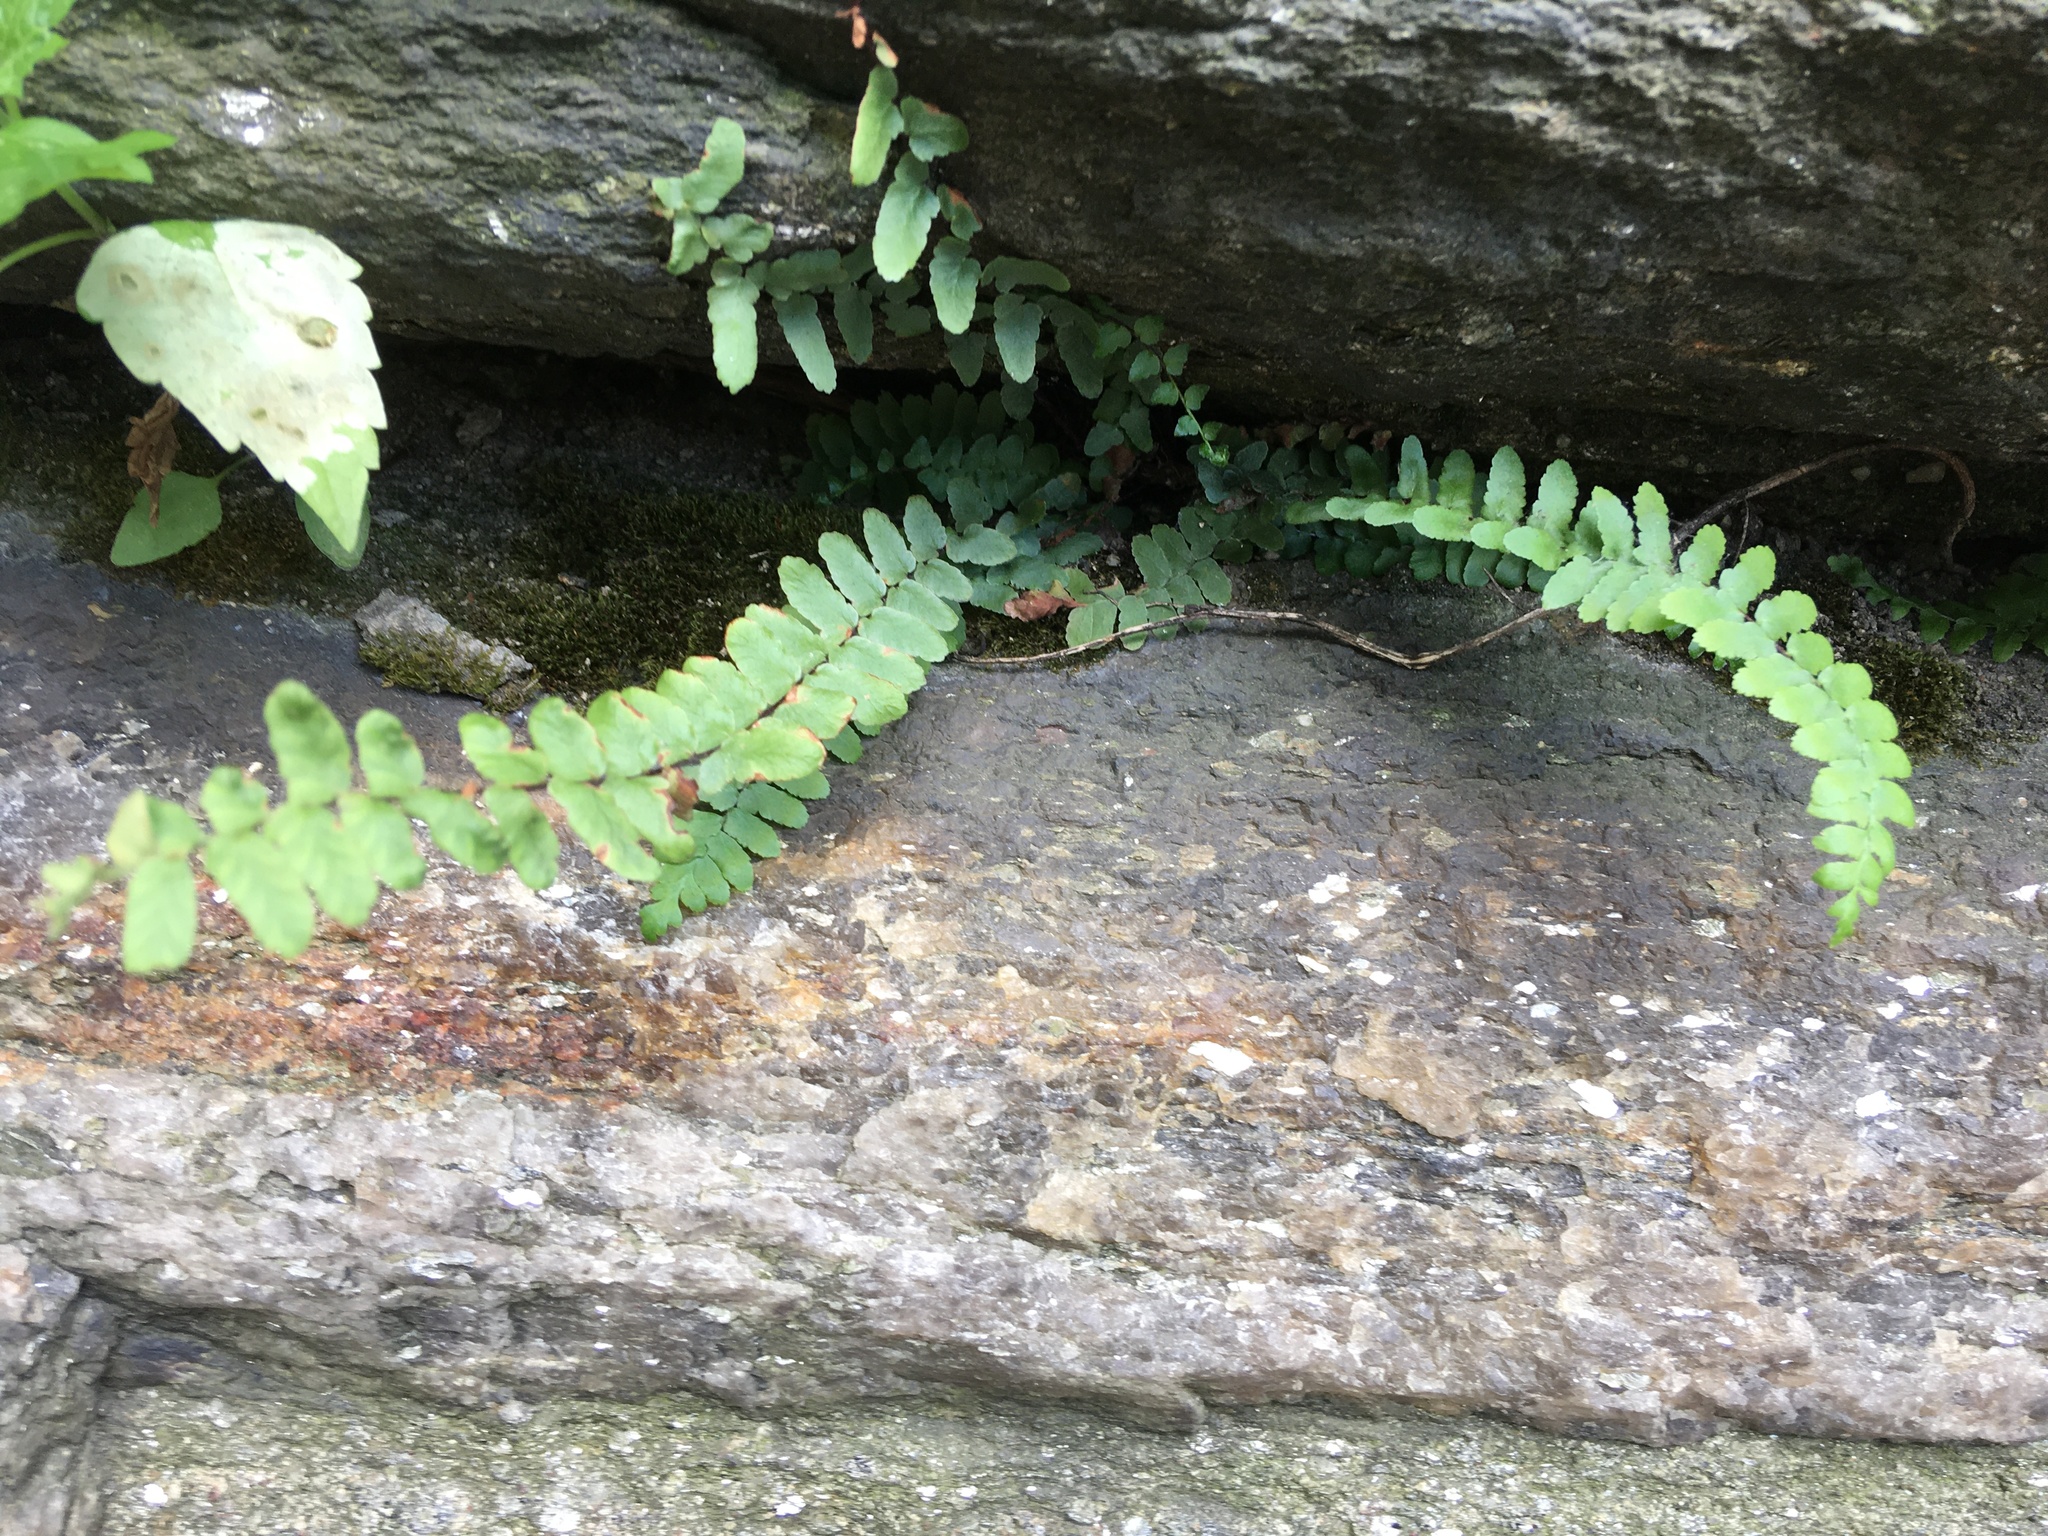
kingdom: Plantae
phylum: Tracheophyta
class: Polypodiopsida
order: Polypodiales
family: Aspleniaceae
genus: Asplenium
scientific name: Asplenium platyneuron
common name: Ebony spleenwort
